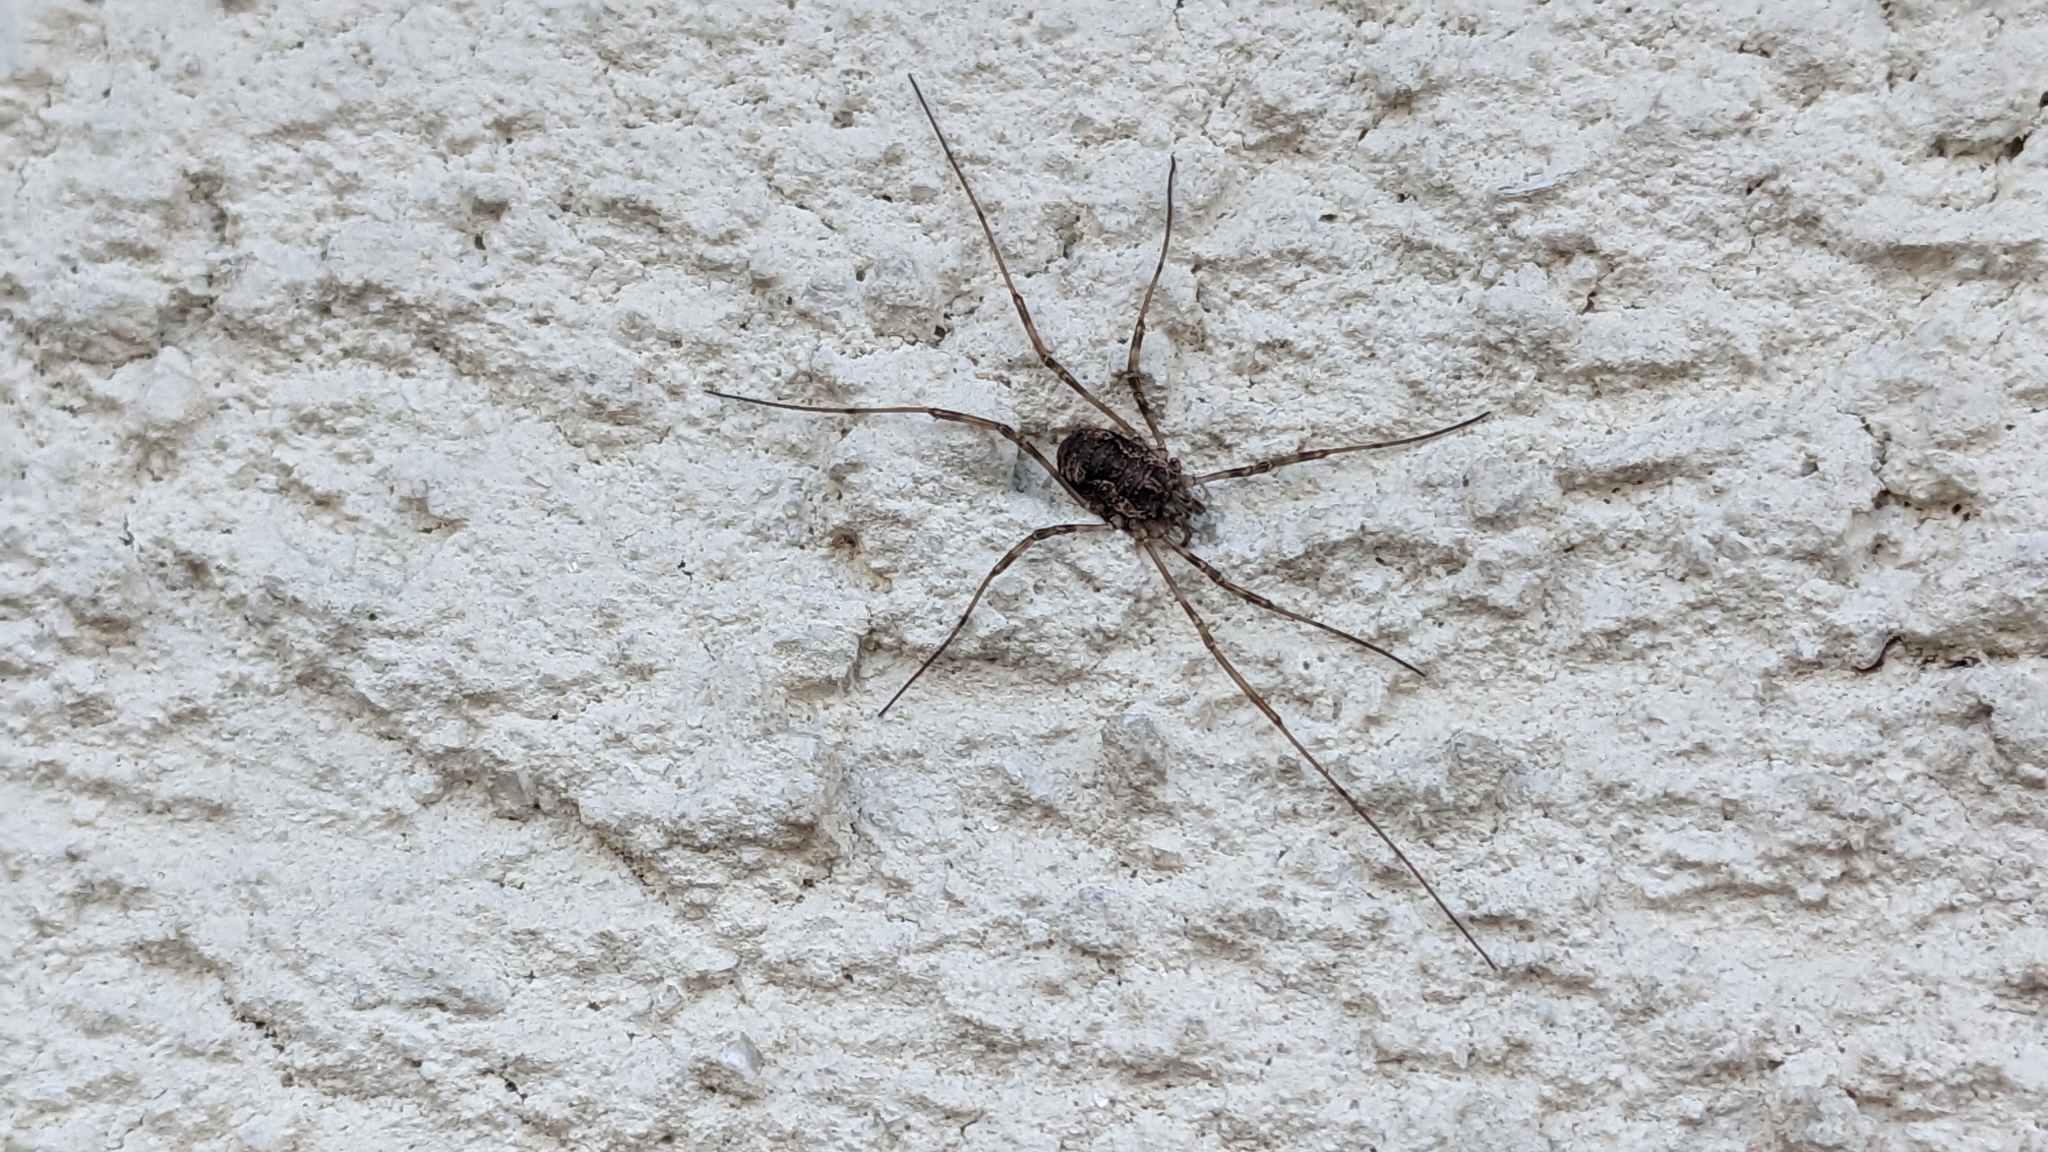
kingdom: Animalia
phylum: Arthropoda
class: Arachnida
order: Opiliones
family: Phalangiidae
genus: Dasylobus
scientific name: Dasylobus graniferus
